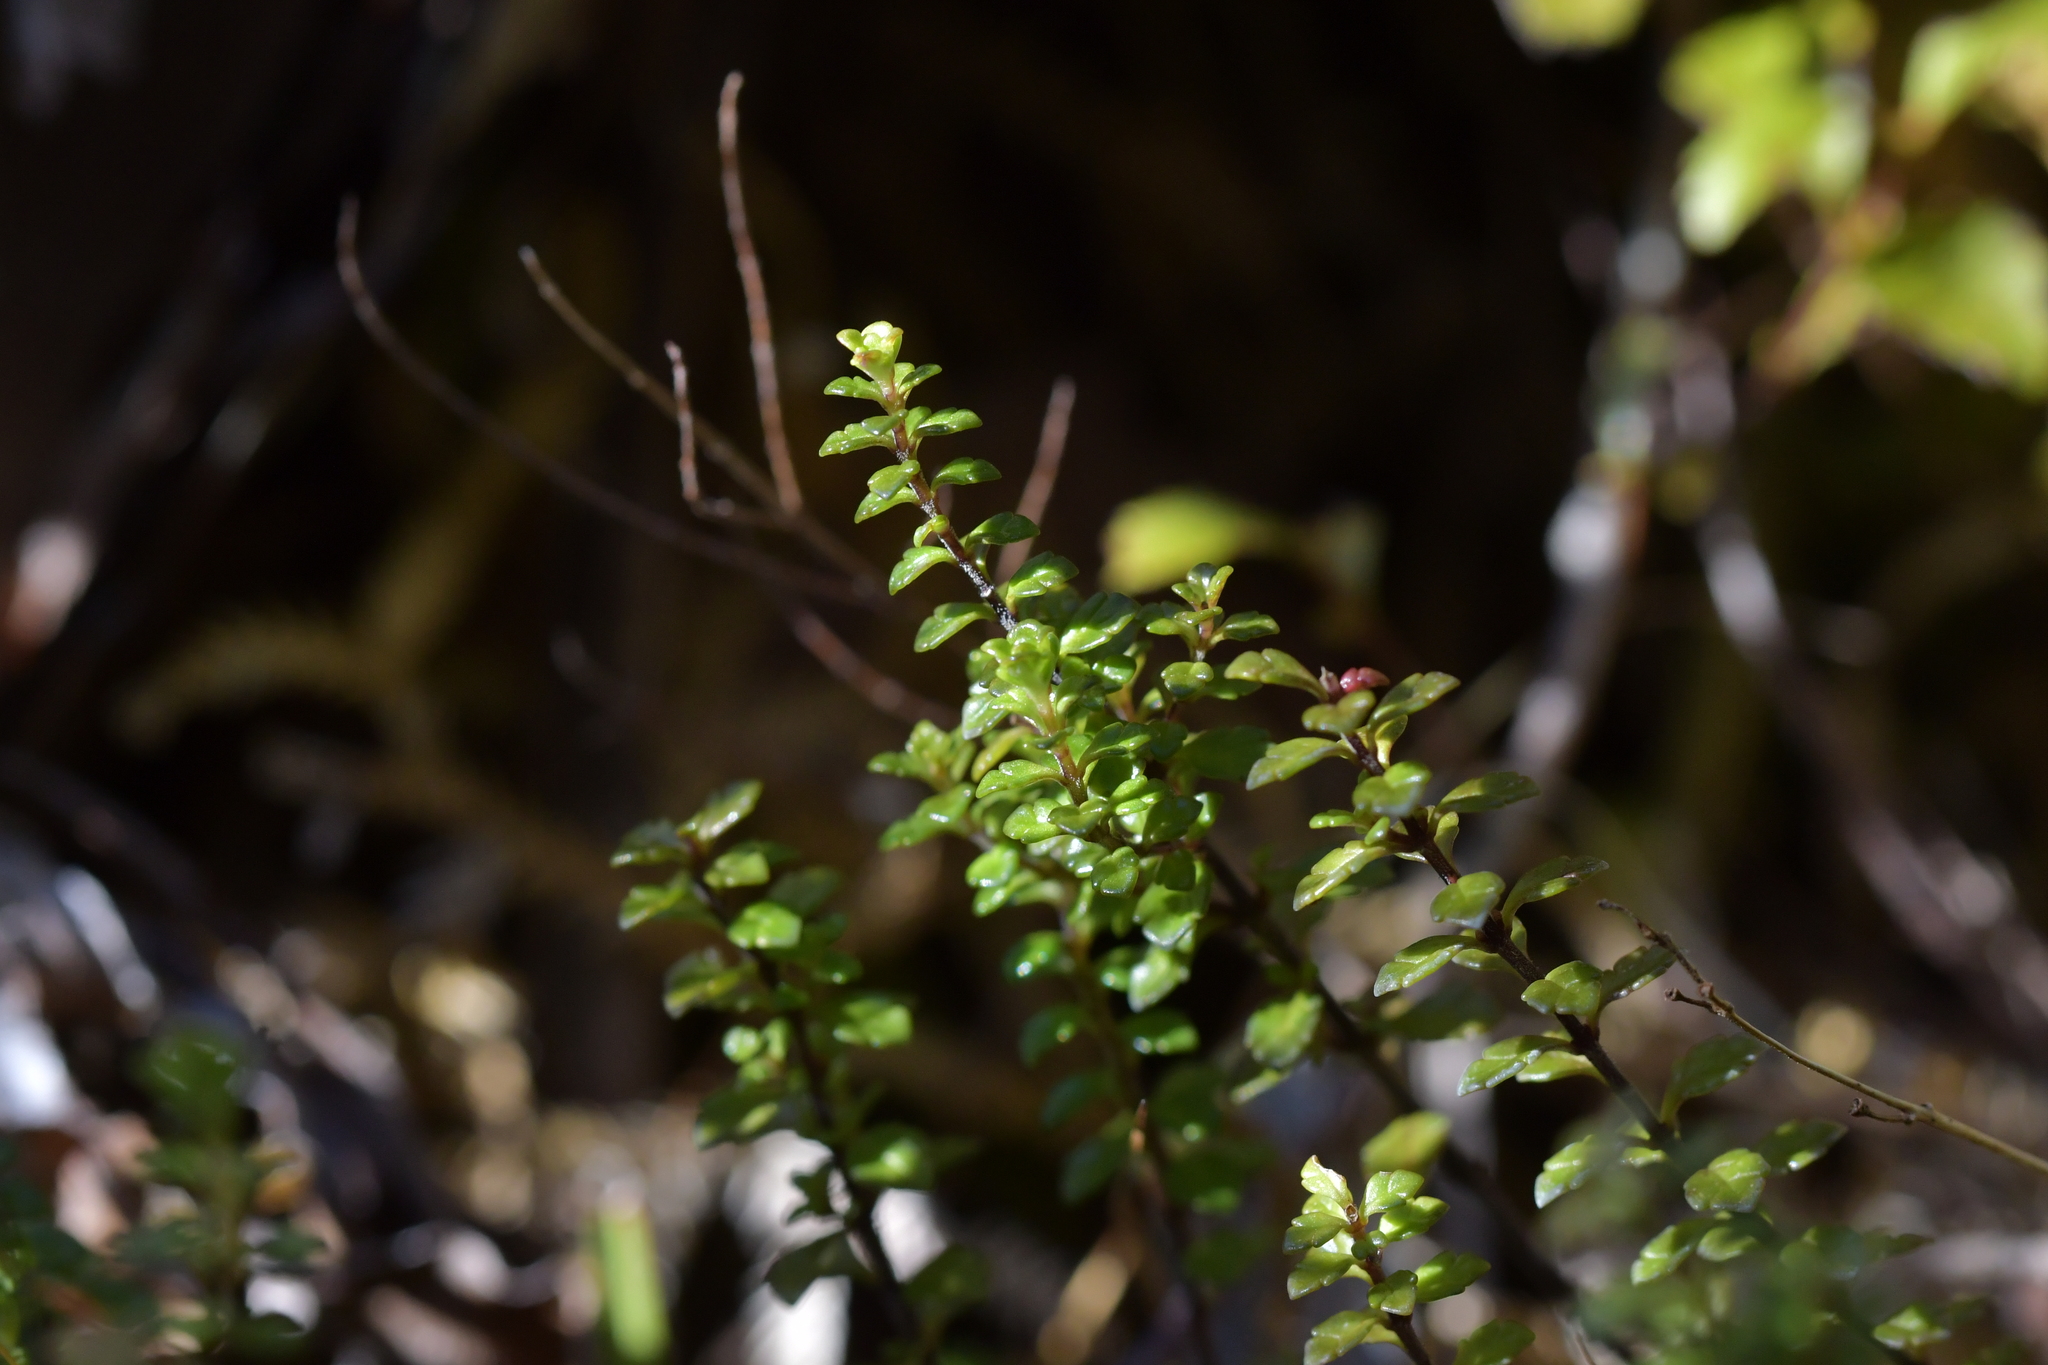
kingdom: Plantae
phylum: Tracheophyta
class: Magnoliopsida
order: Lamiales
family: Orobanchaceae
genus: Euphrasia
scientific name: Euphrasia cuneata
